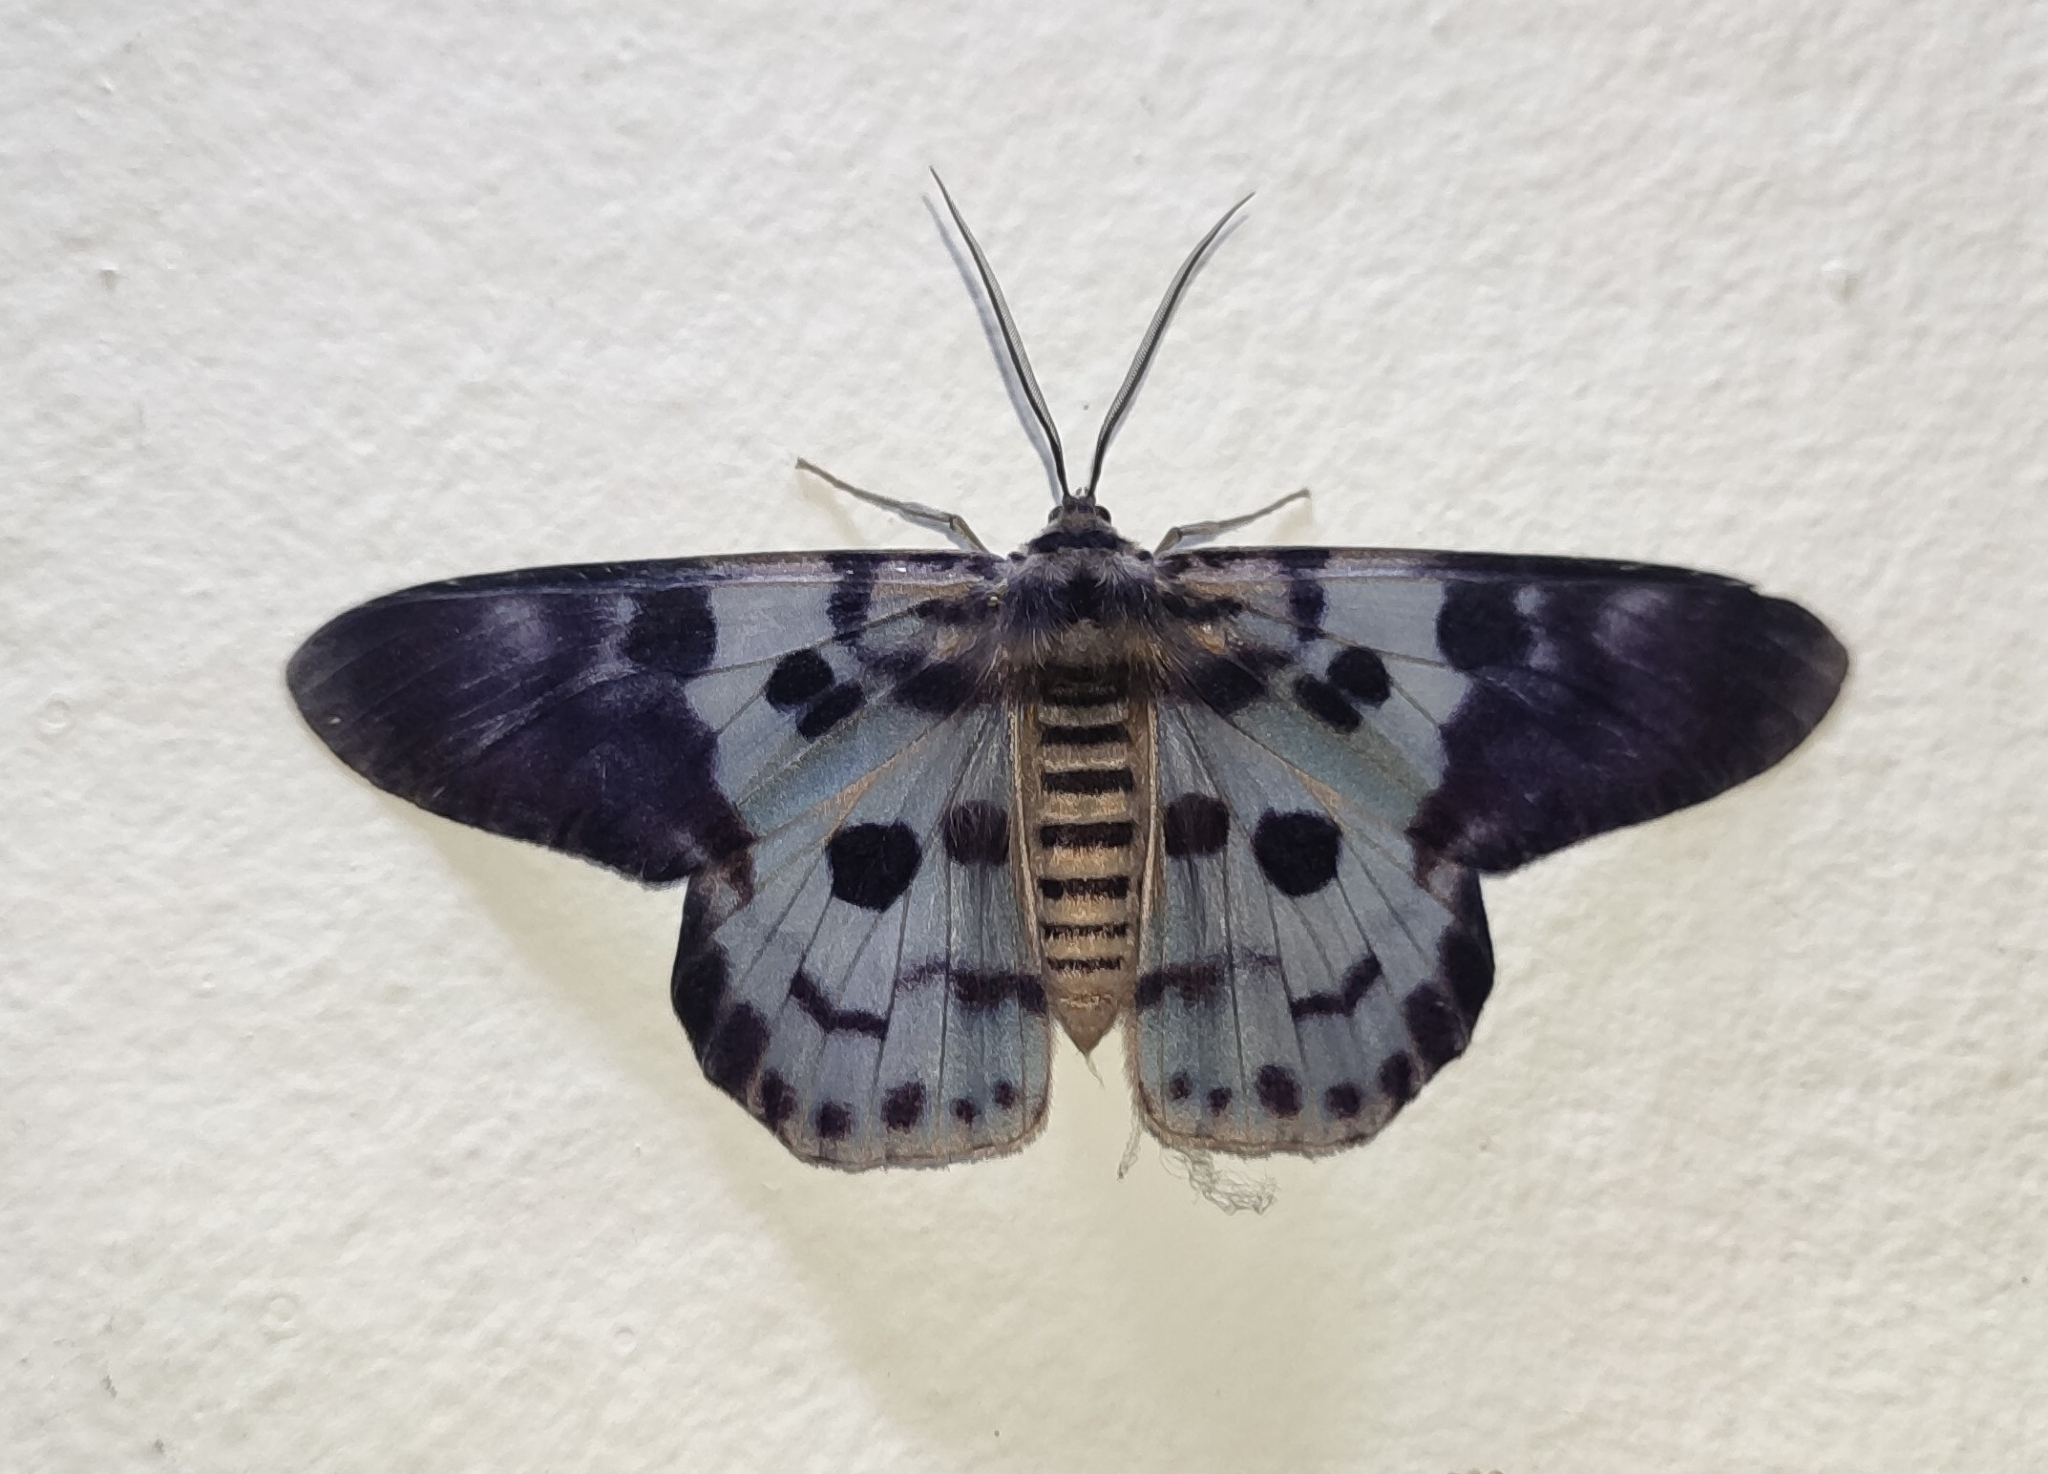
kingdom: Animalia
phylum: Arthropoda
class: Insecta
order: Lepidoptera
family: Geometridae
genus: Dysphania
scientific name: Dysphania percota
